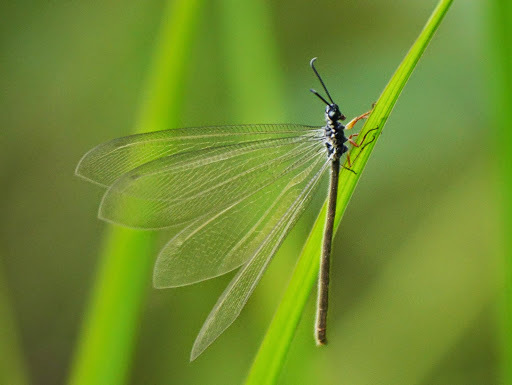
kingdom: Animalia
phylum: Arthropoda
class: Insecta
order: Neuroptera
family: Myrmeleontidae
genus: Myrmeleon
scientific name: Myrmeleon lethifer
